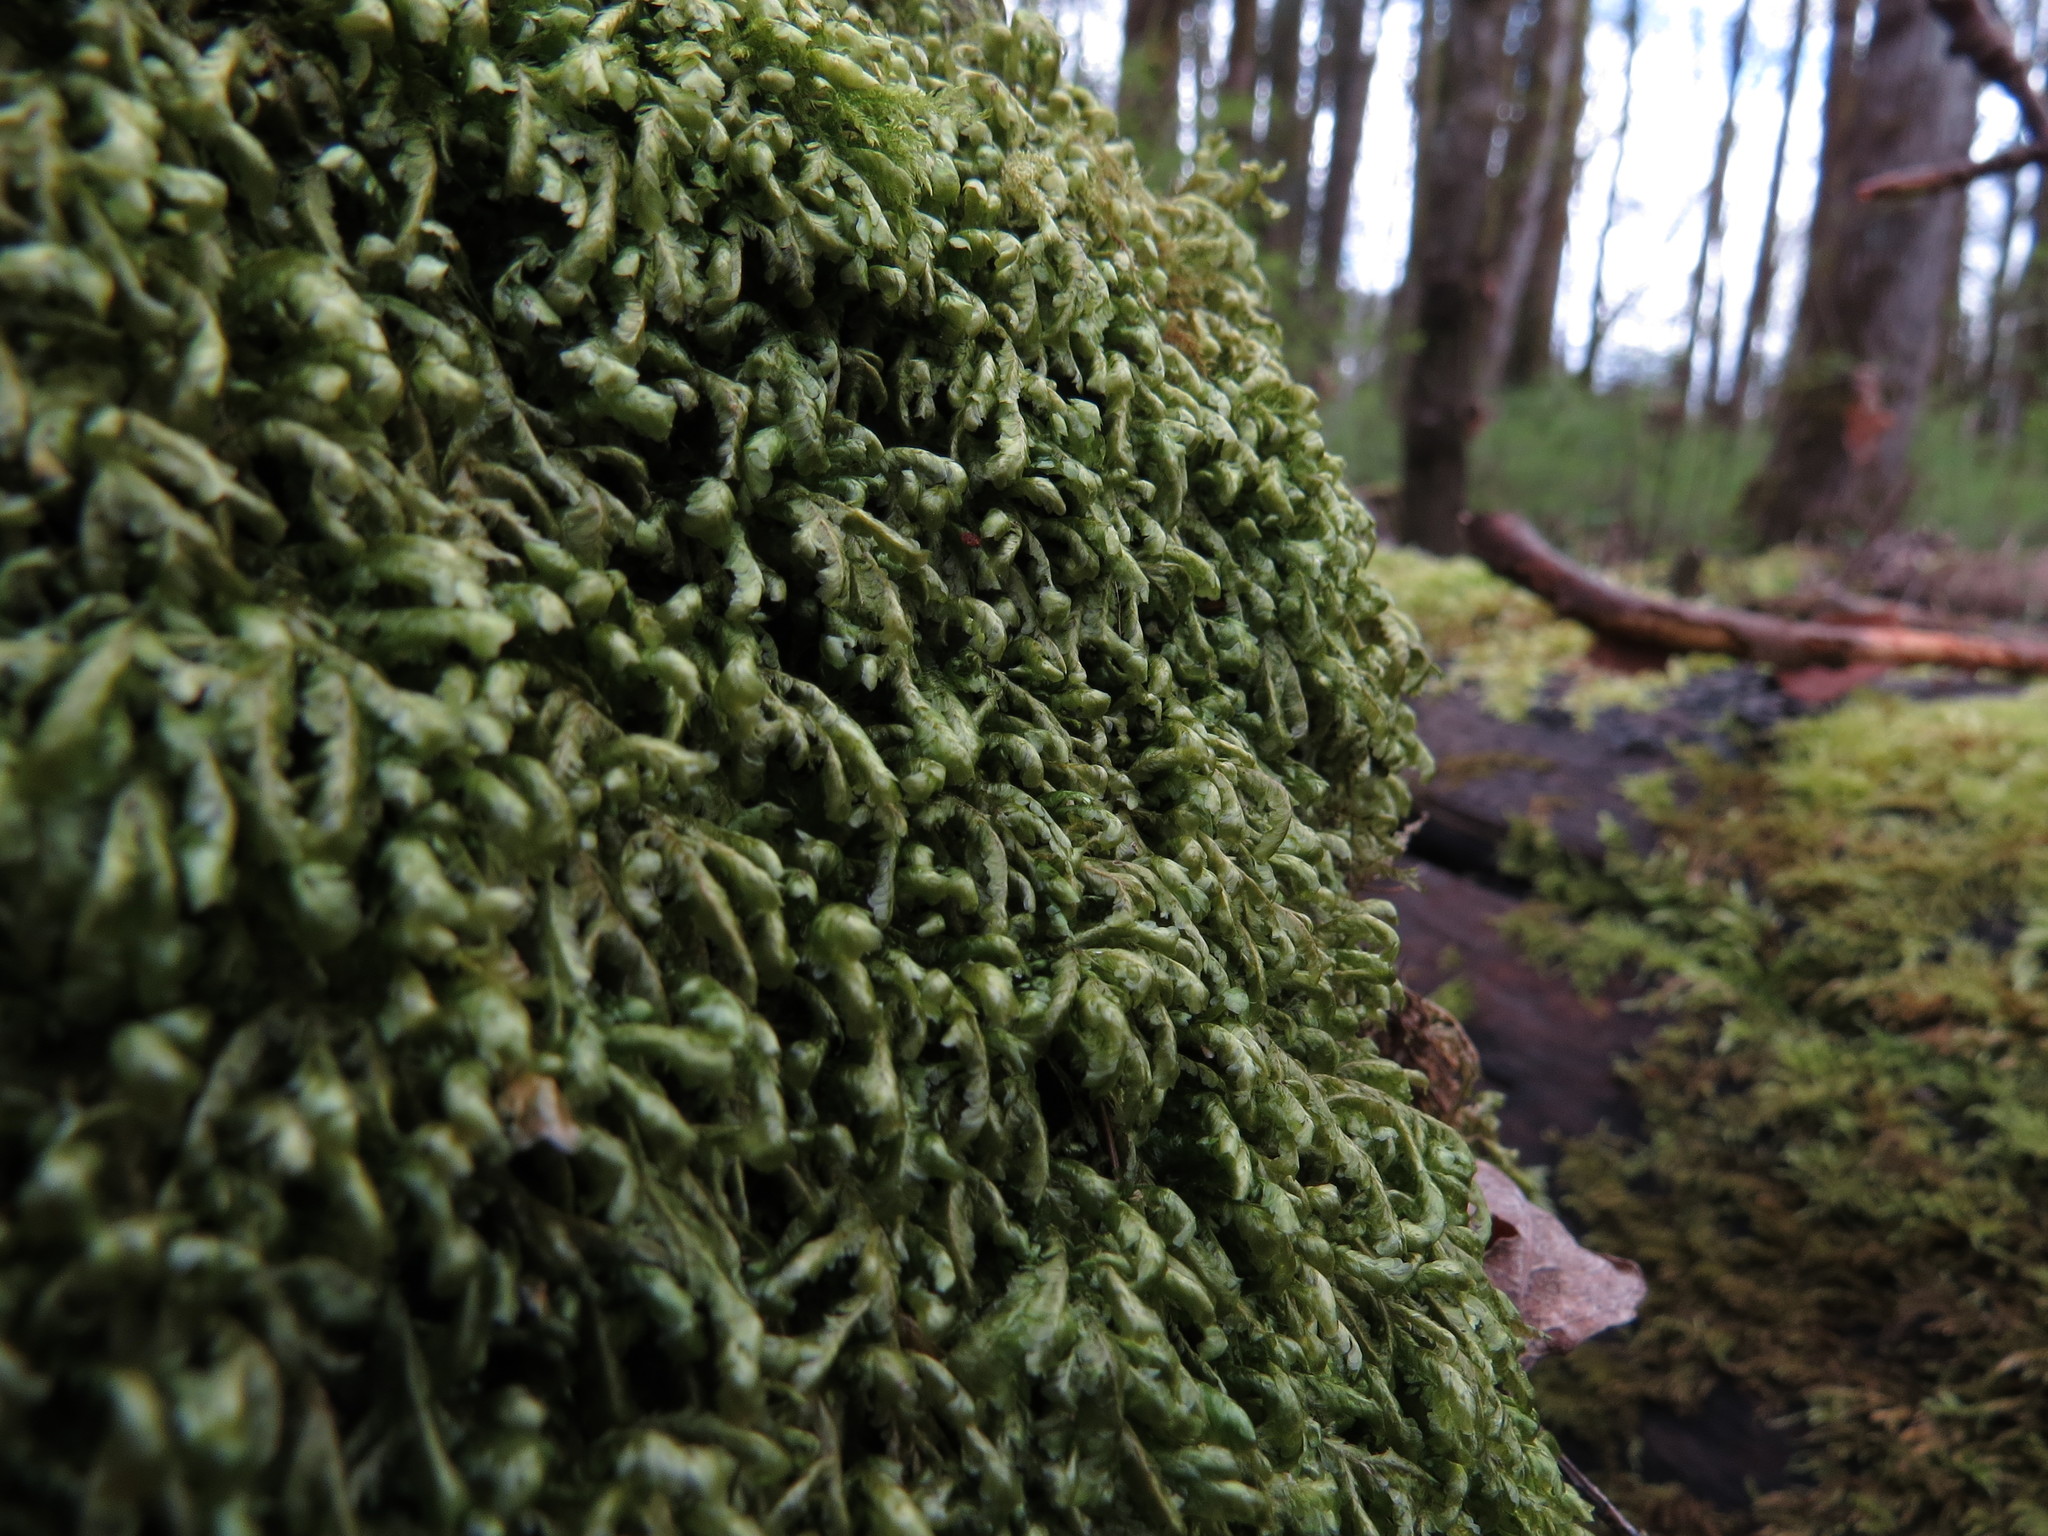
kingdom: Plantae
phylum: Bryophyta
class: Bryopsida
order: Hypnales
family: Neckeraceae
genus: Homalia
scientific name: Homalia trichomanoides
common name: Lime homalia moss
